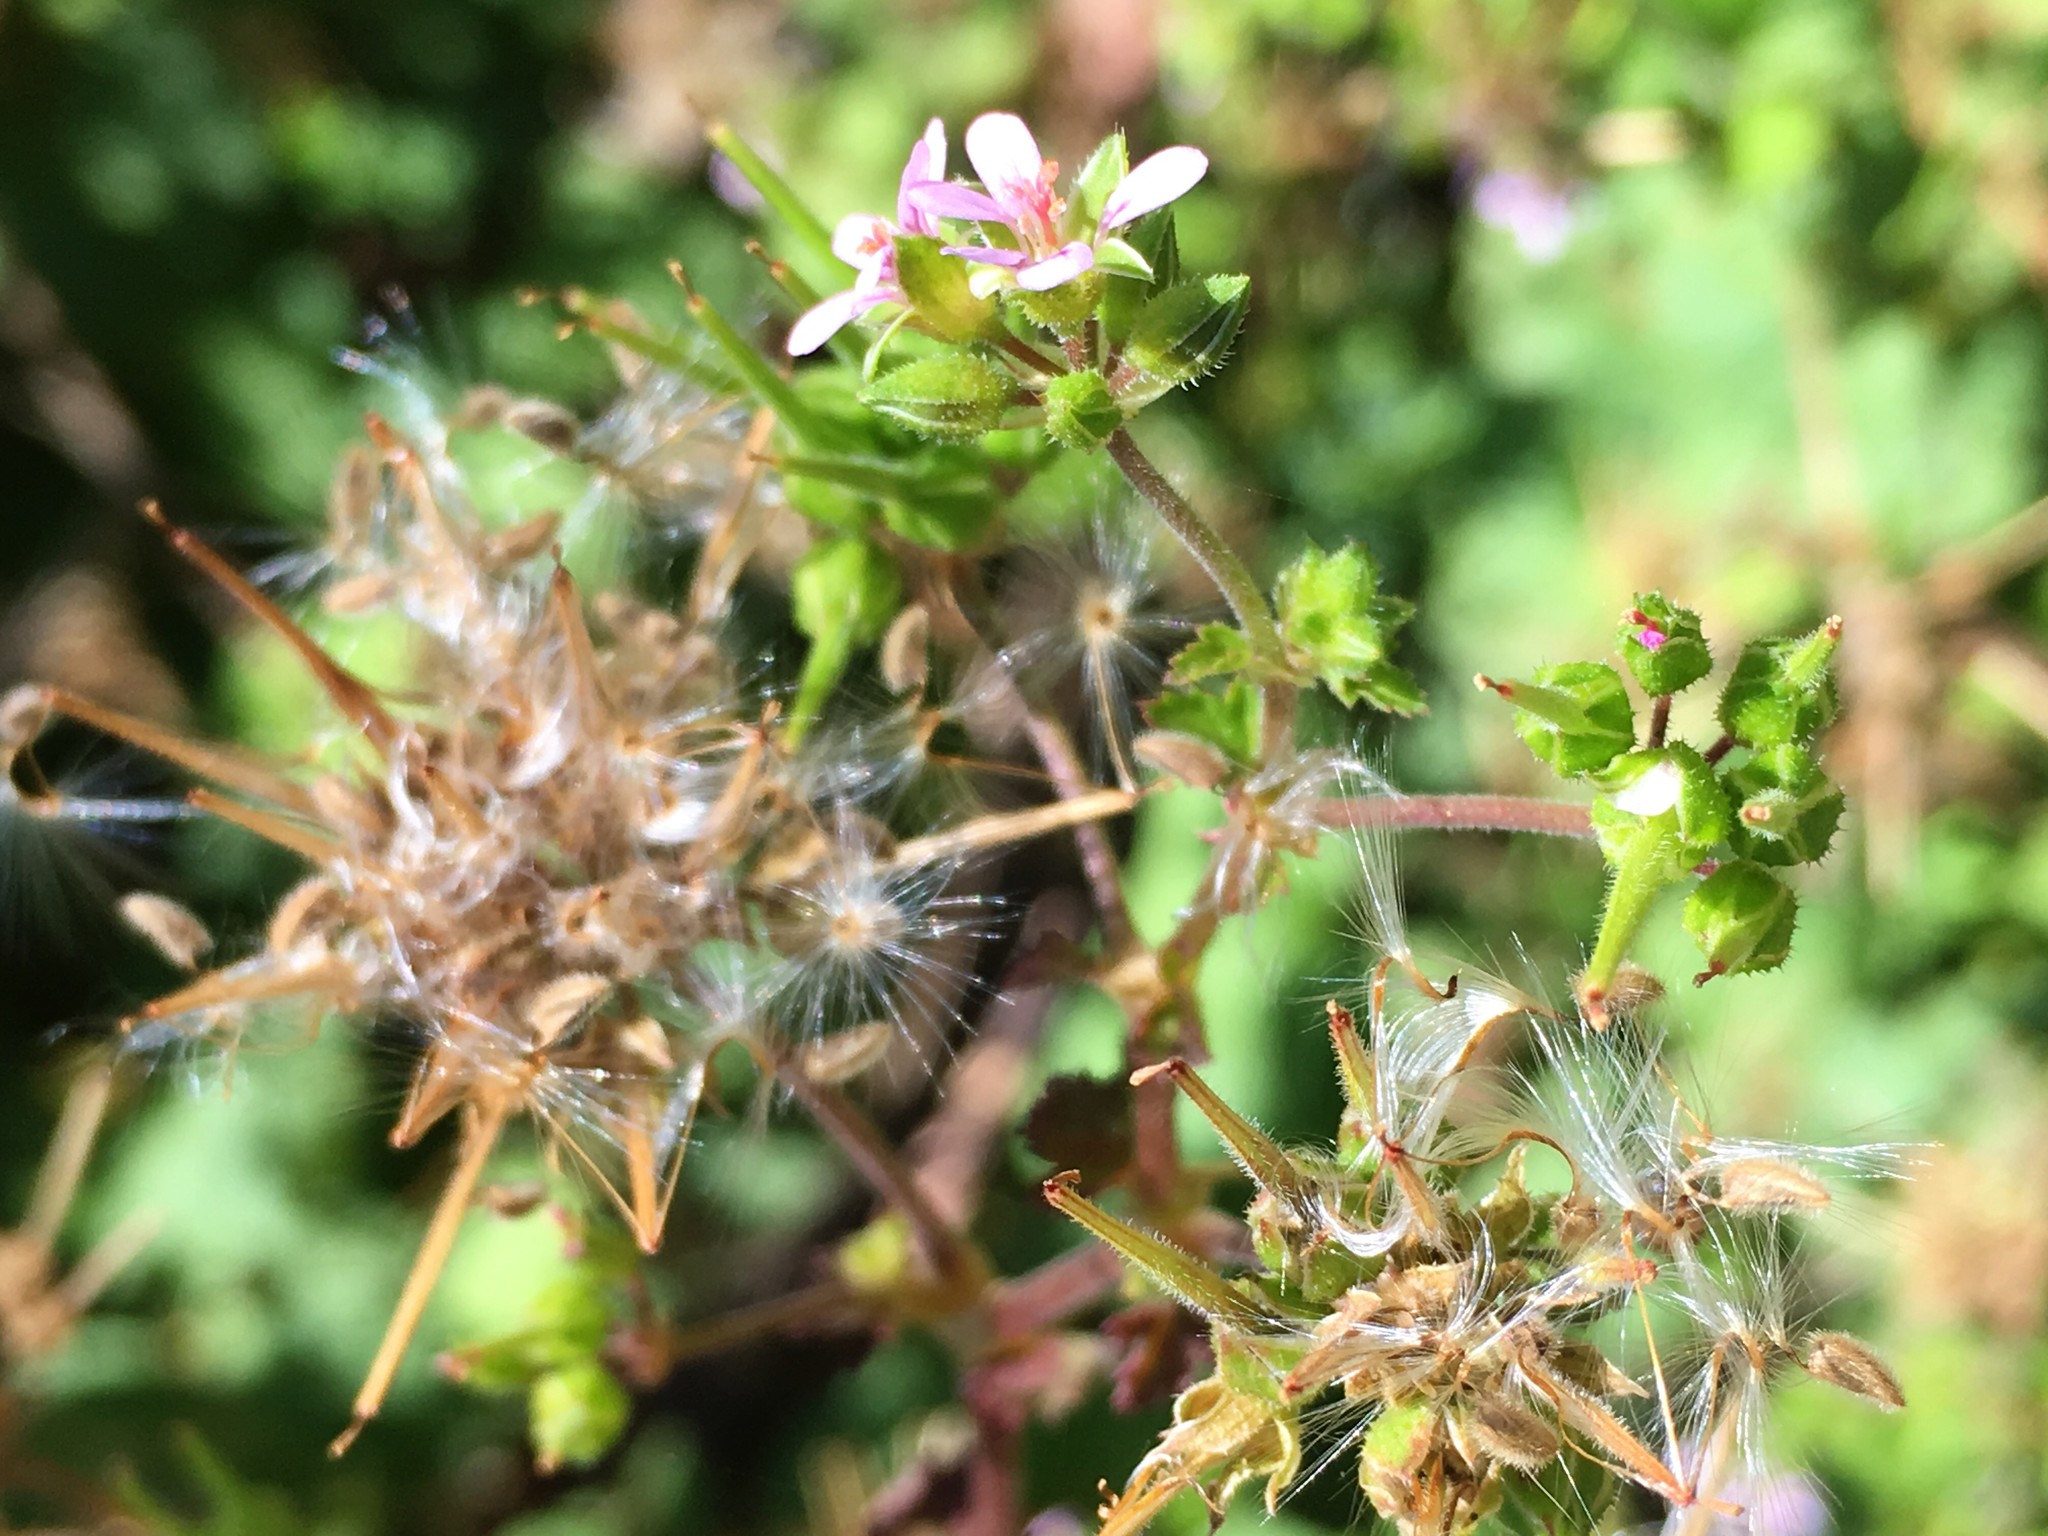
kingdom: Plantae
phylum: Tracheophyta
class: Magnoliopsida
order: Geraniales
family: Geraniaceae
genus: Pelargonium
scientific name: Pelargonium inodorum
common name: Kopata geranium
